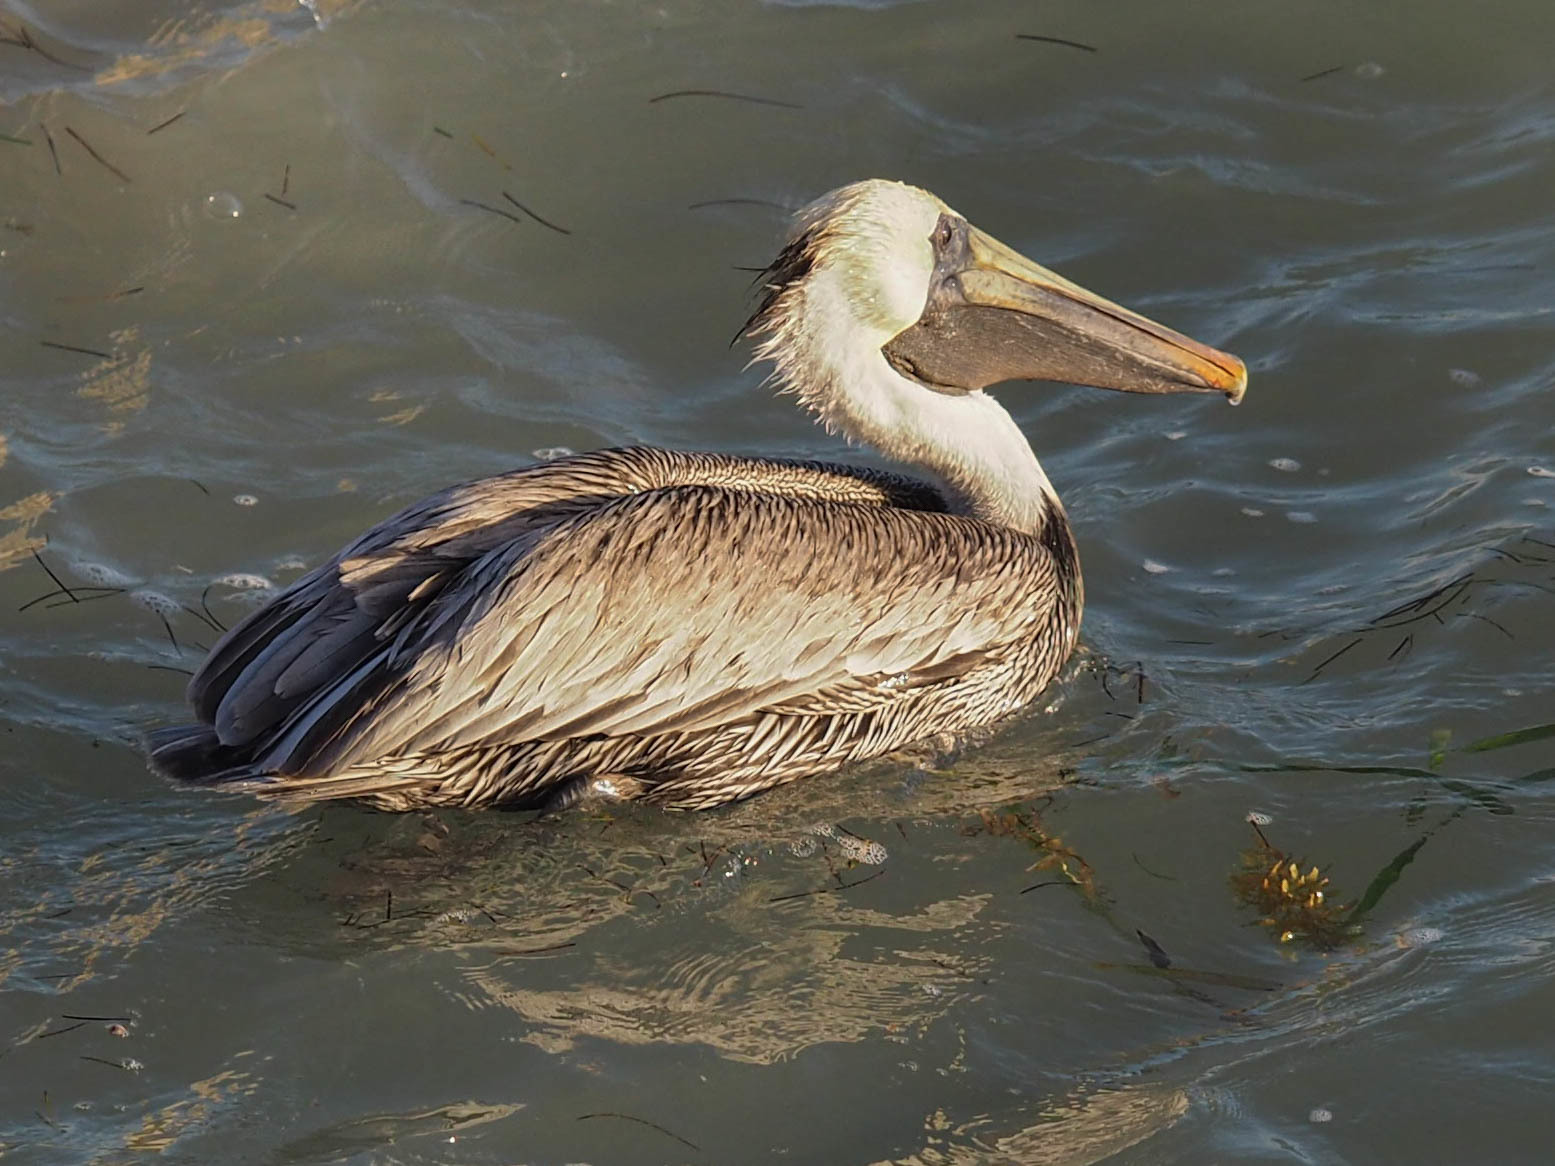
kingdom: Animalia
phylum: Chordata
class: Aves
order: Pelecaniformes
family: Pelecanidae
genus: Pelecanus
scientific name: Pelecanus occidentalis
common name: Brown pelican
